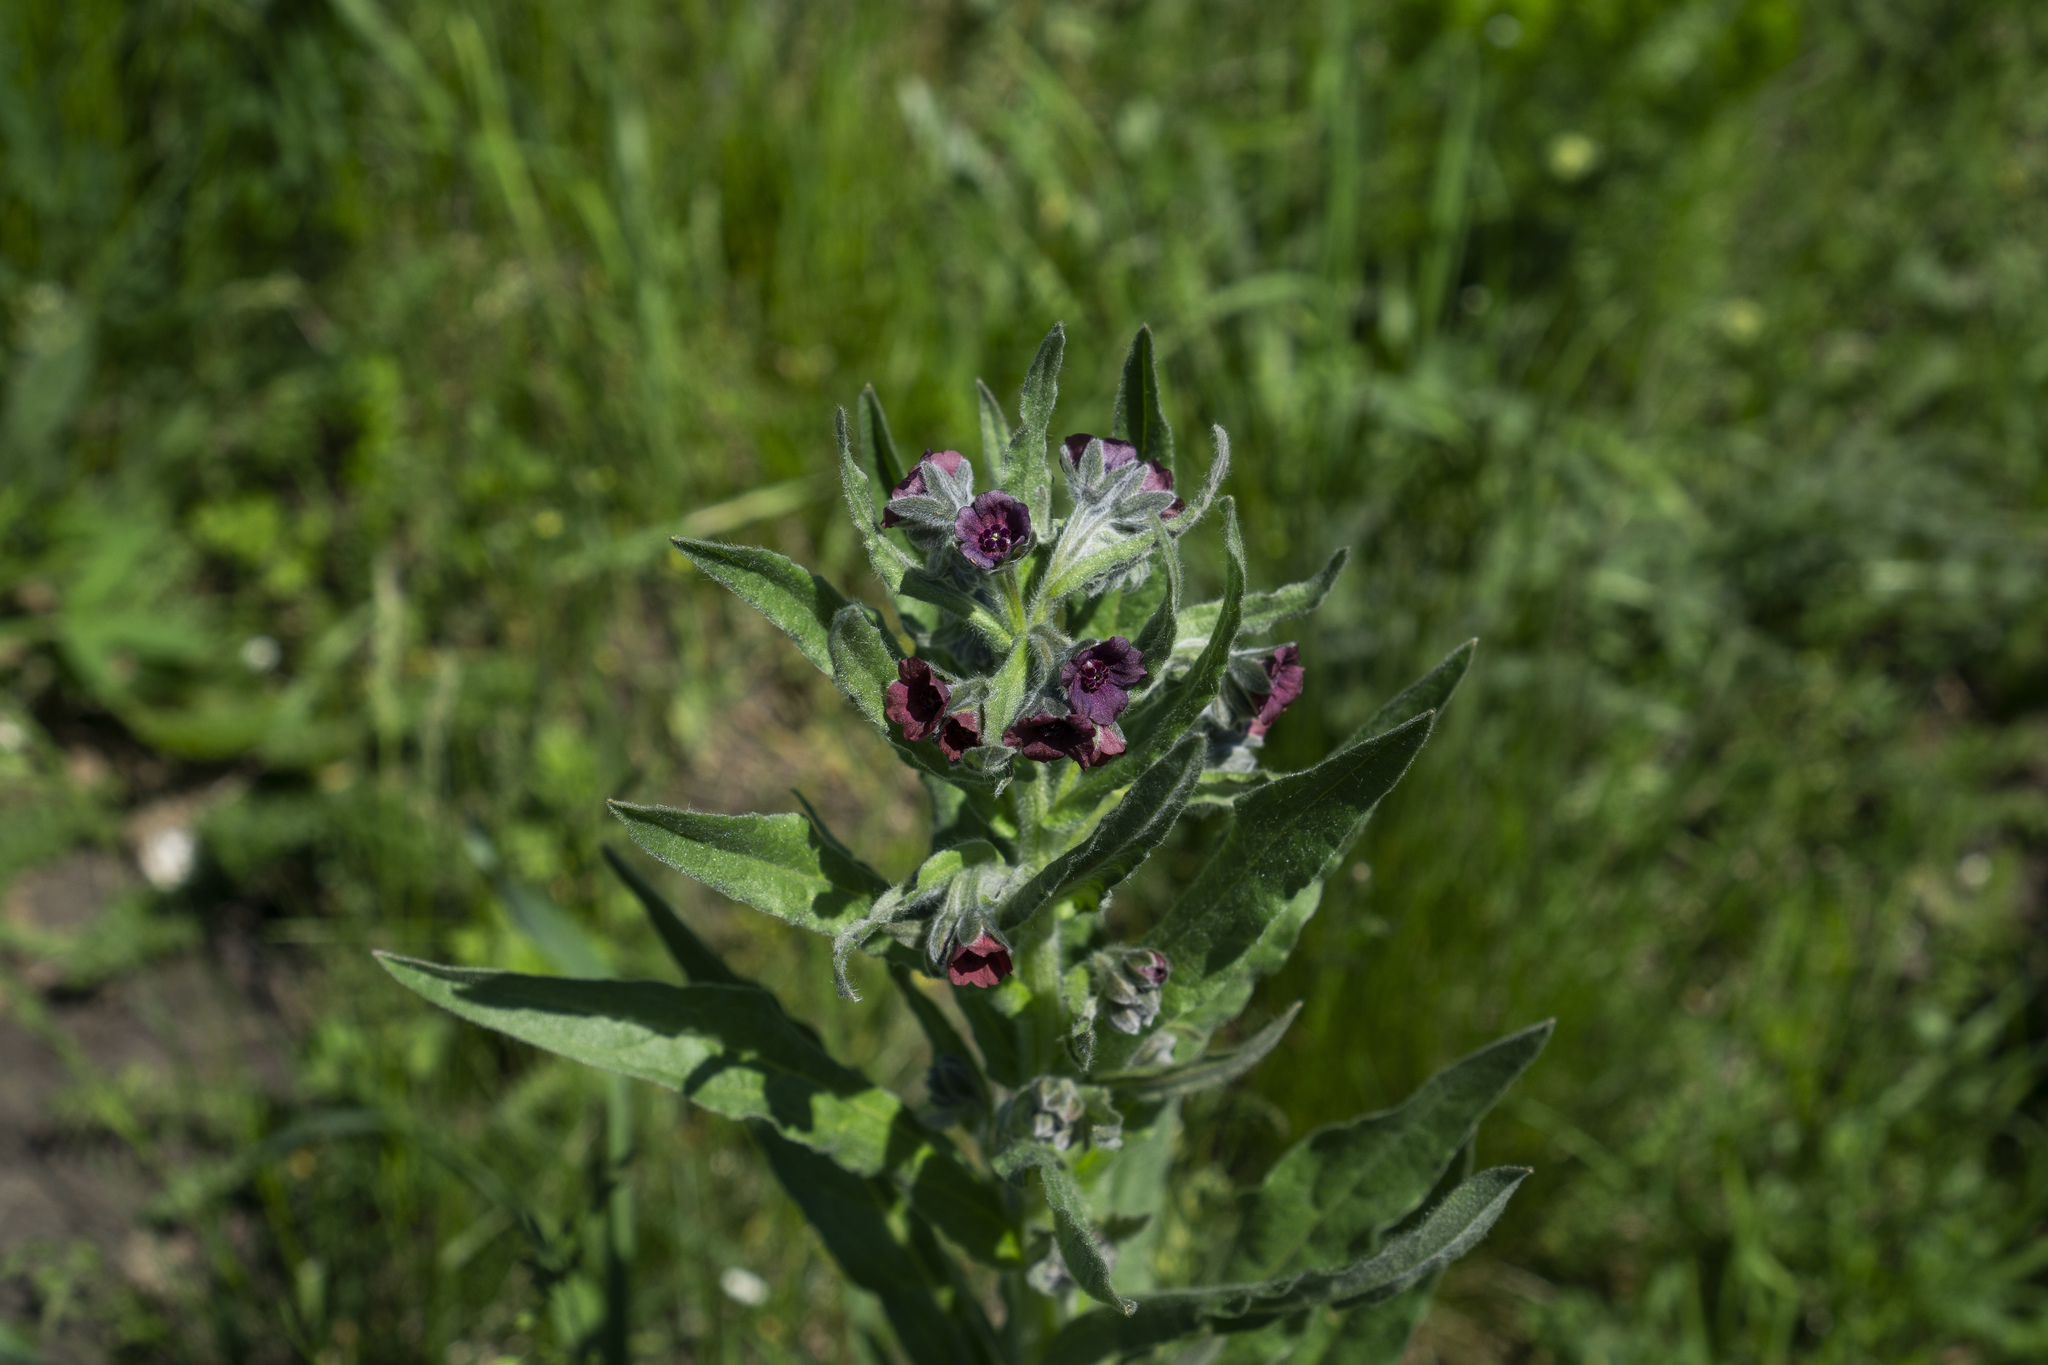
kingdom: Plantae
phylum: Tracheophyta
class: Magnoliopsida
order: Boraginales
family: Boraginaceae
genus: Cynoglossum
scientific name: Cynoglossum officinale
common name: Hound's-tongue
